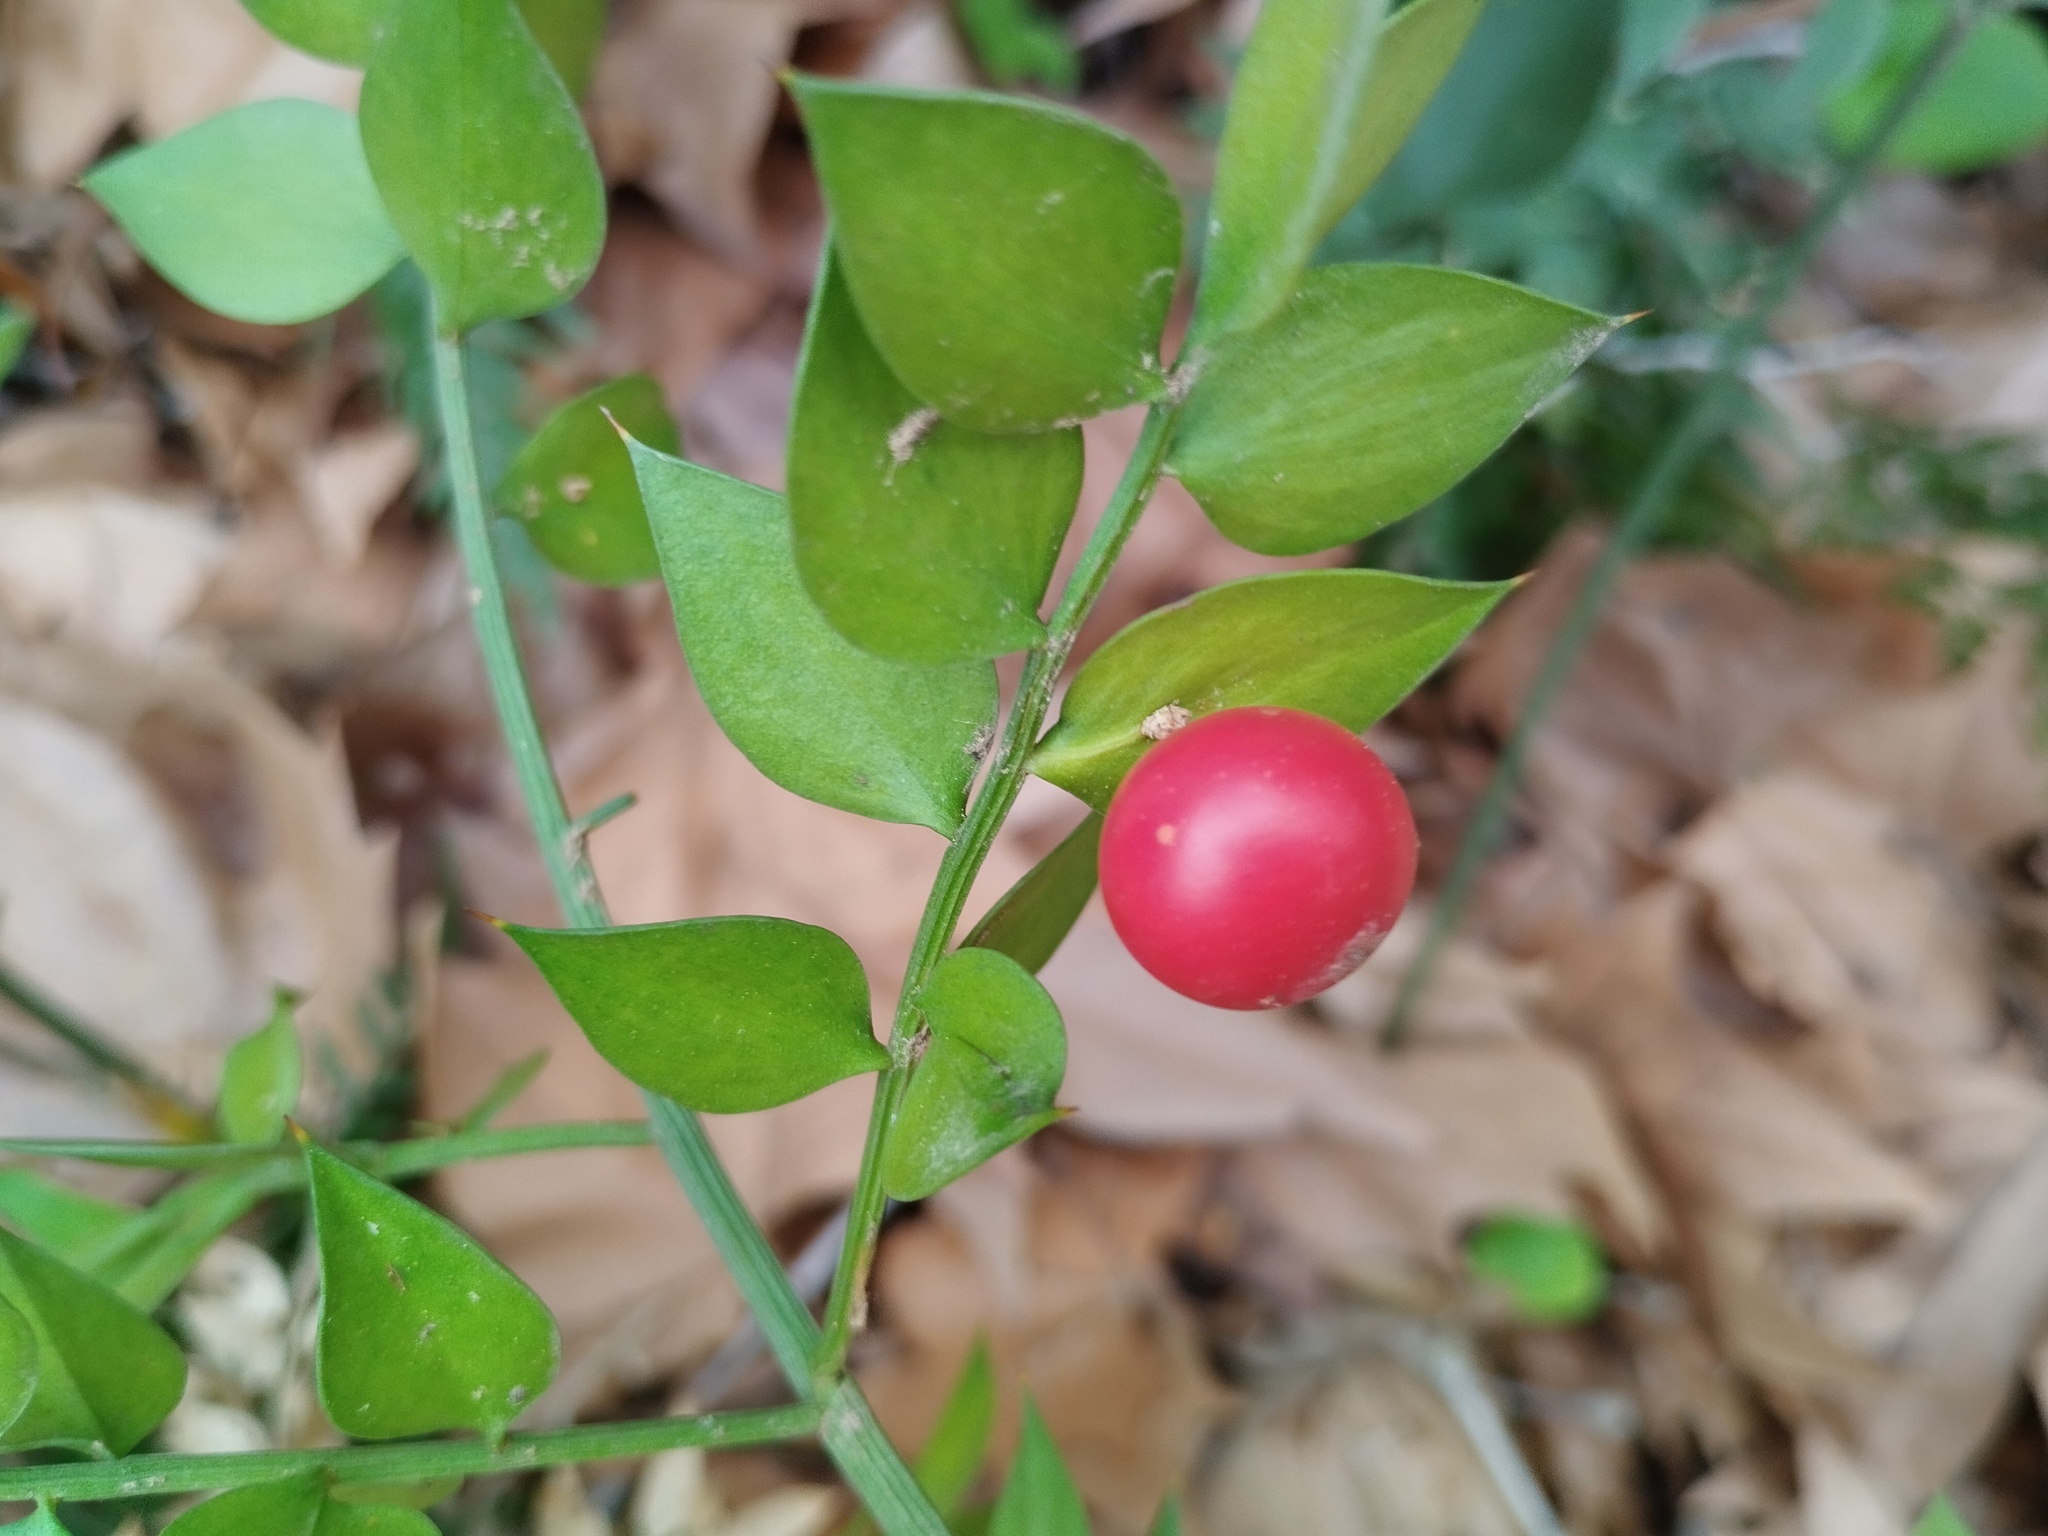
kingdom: Plantae
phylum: Tracheophyta
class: Liliopsida
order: Asparagales
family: Asparagaceae
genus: Ruscus
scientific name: Ruscus aculeatus
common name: Butcher's-broom
